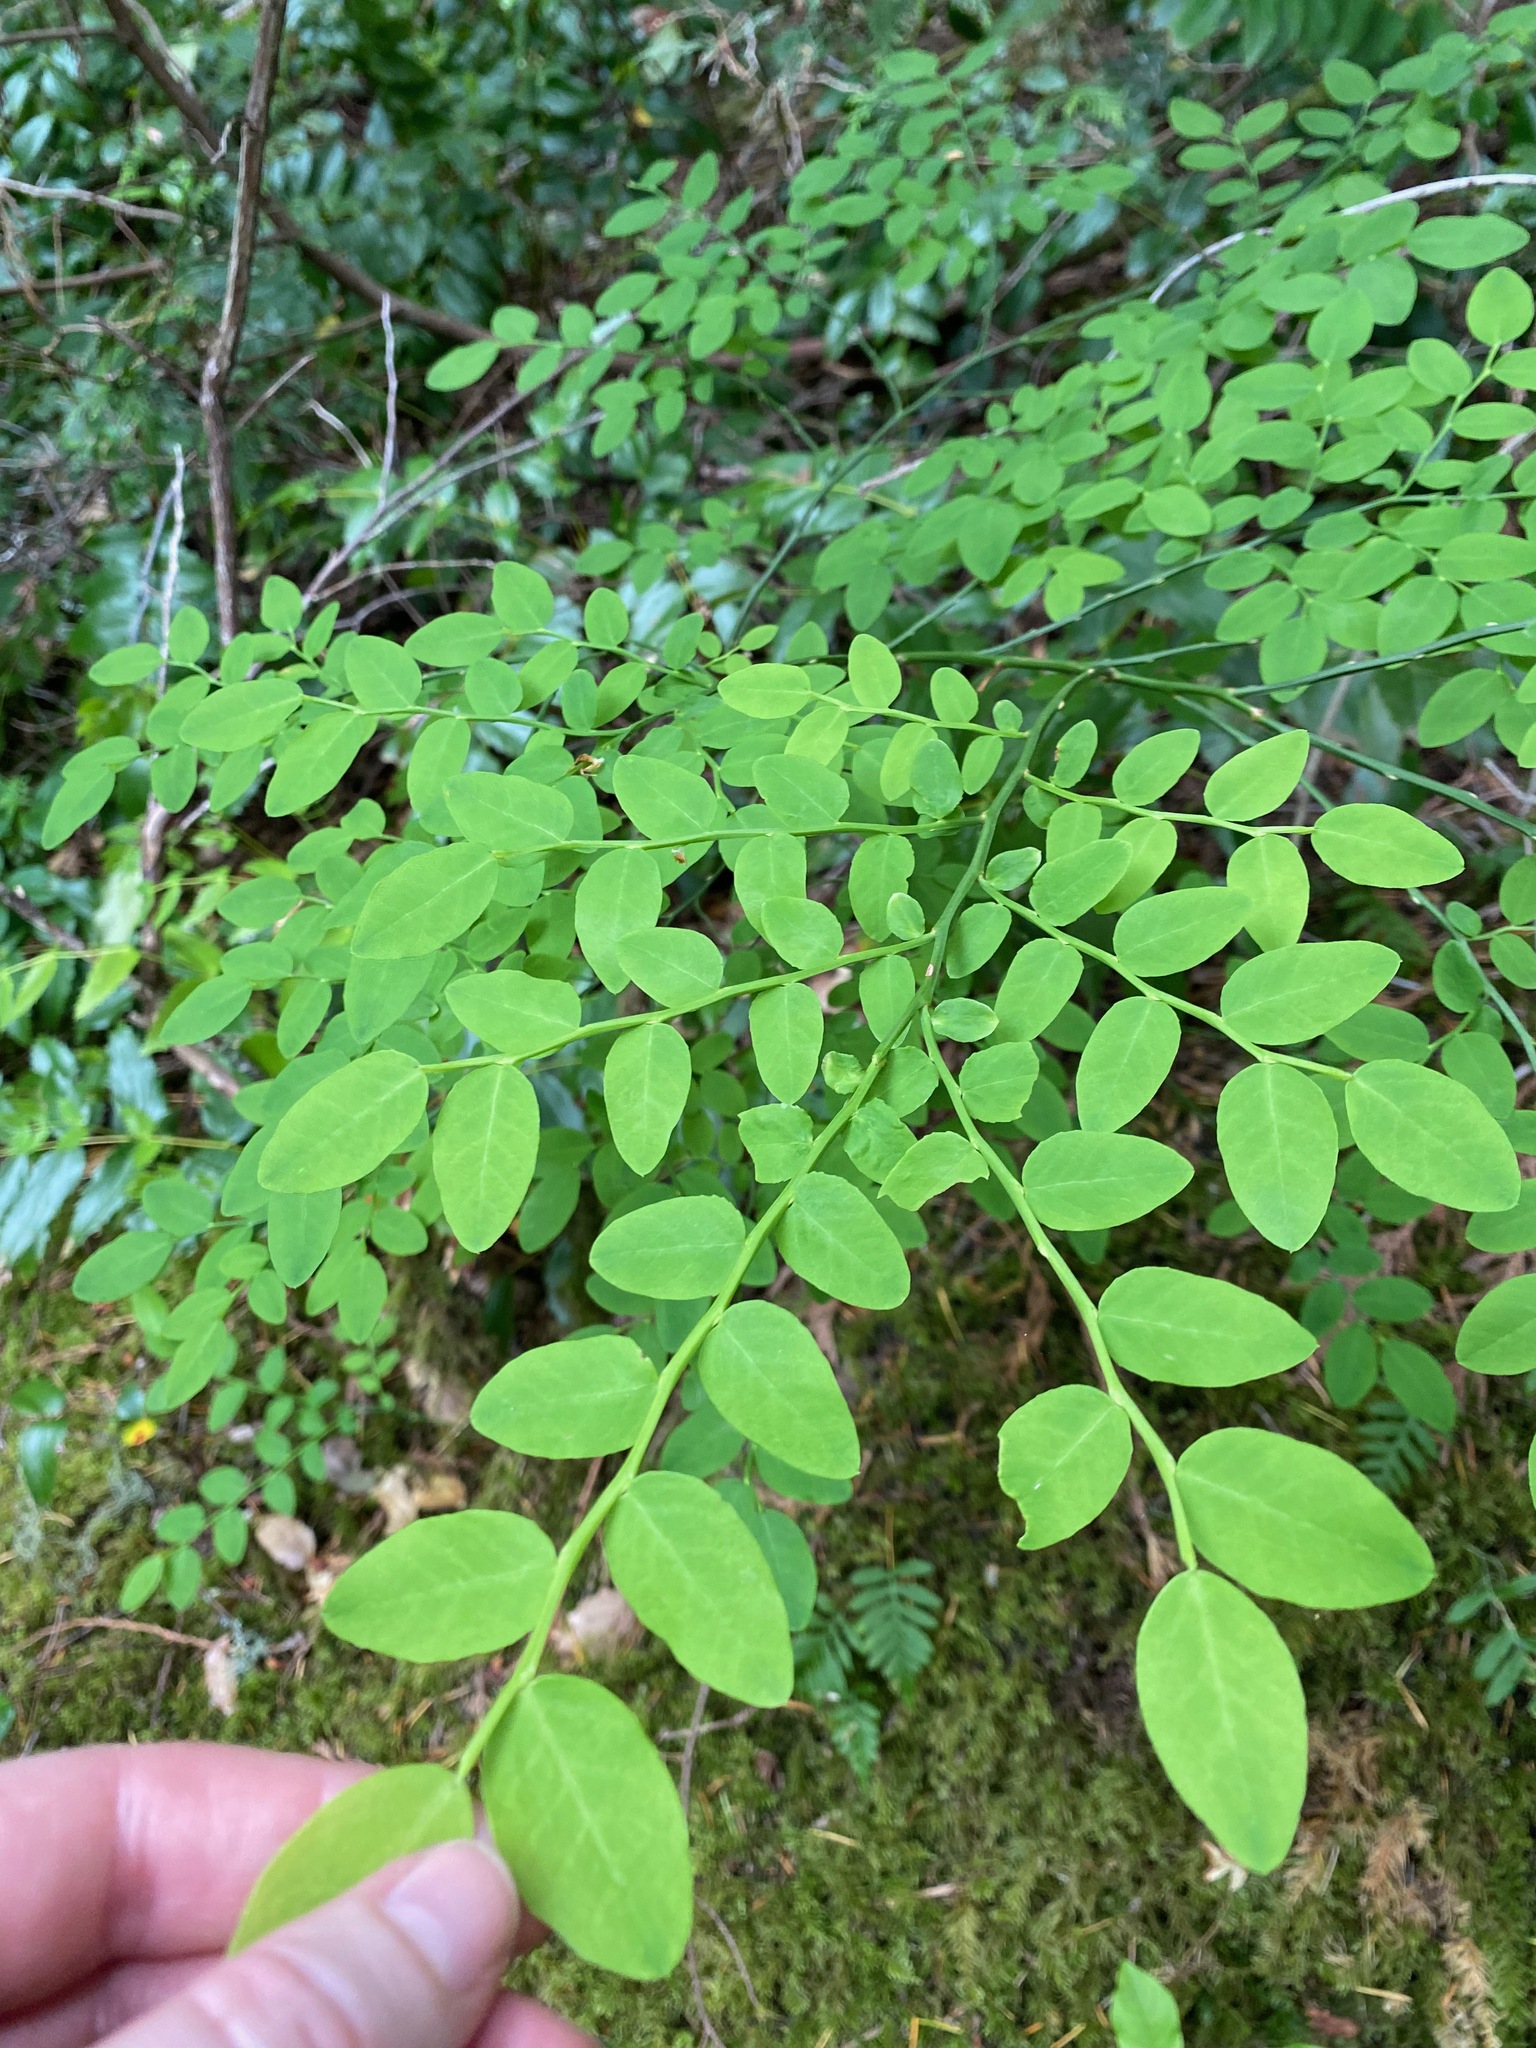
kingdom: Plantae
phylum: Tracheophyta
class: Magnoliopsida
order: Ericales
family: Ericaceae
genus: Vaccinium
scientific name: Vaccinium parvifolium
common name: Red-huckleberry
